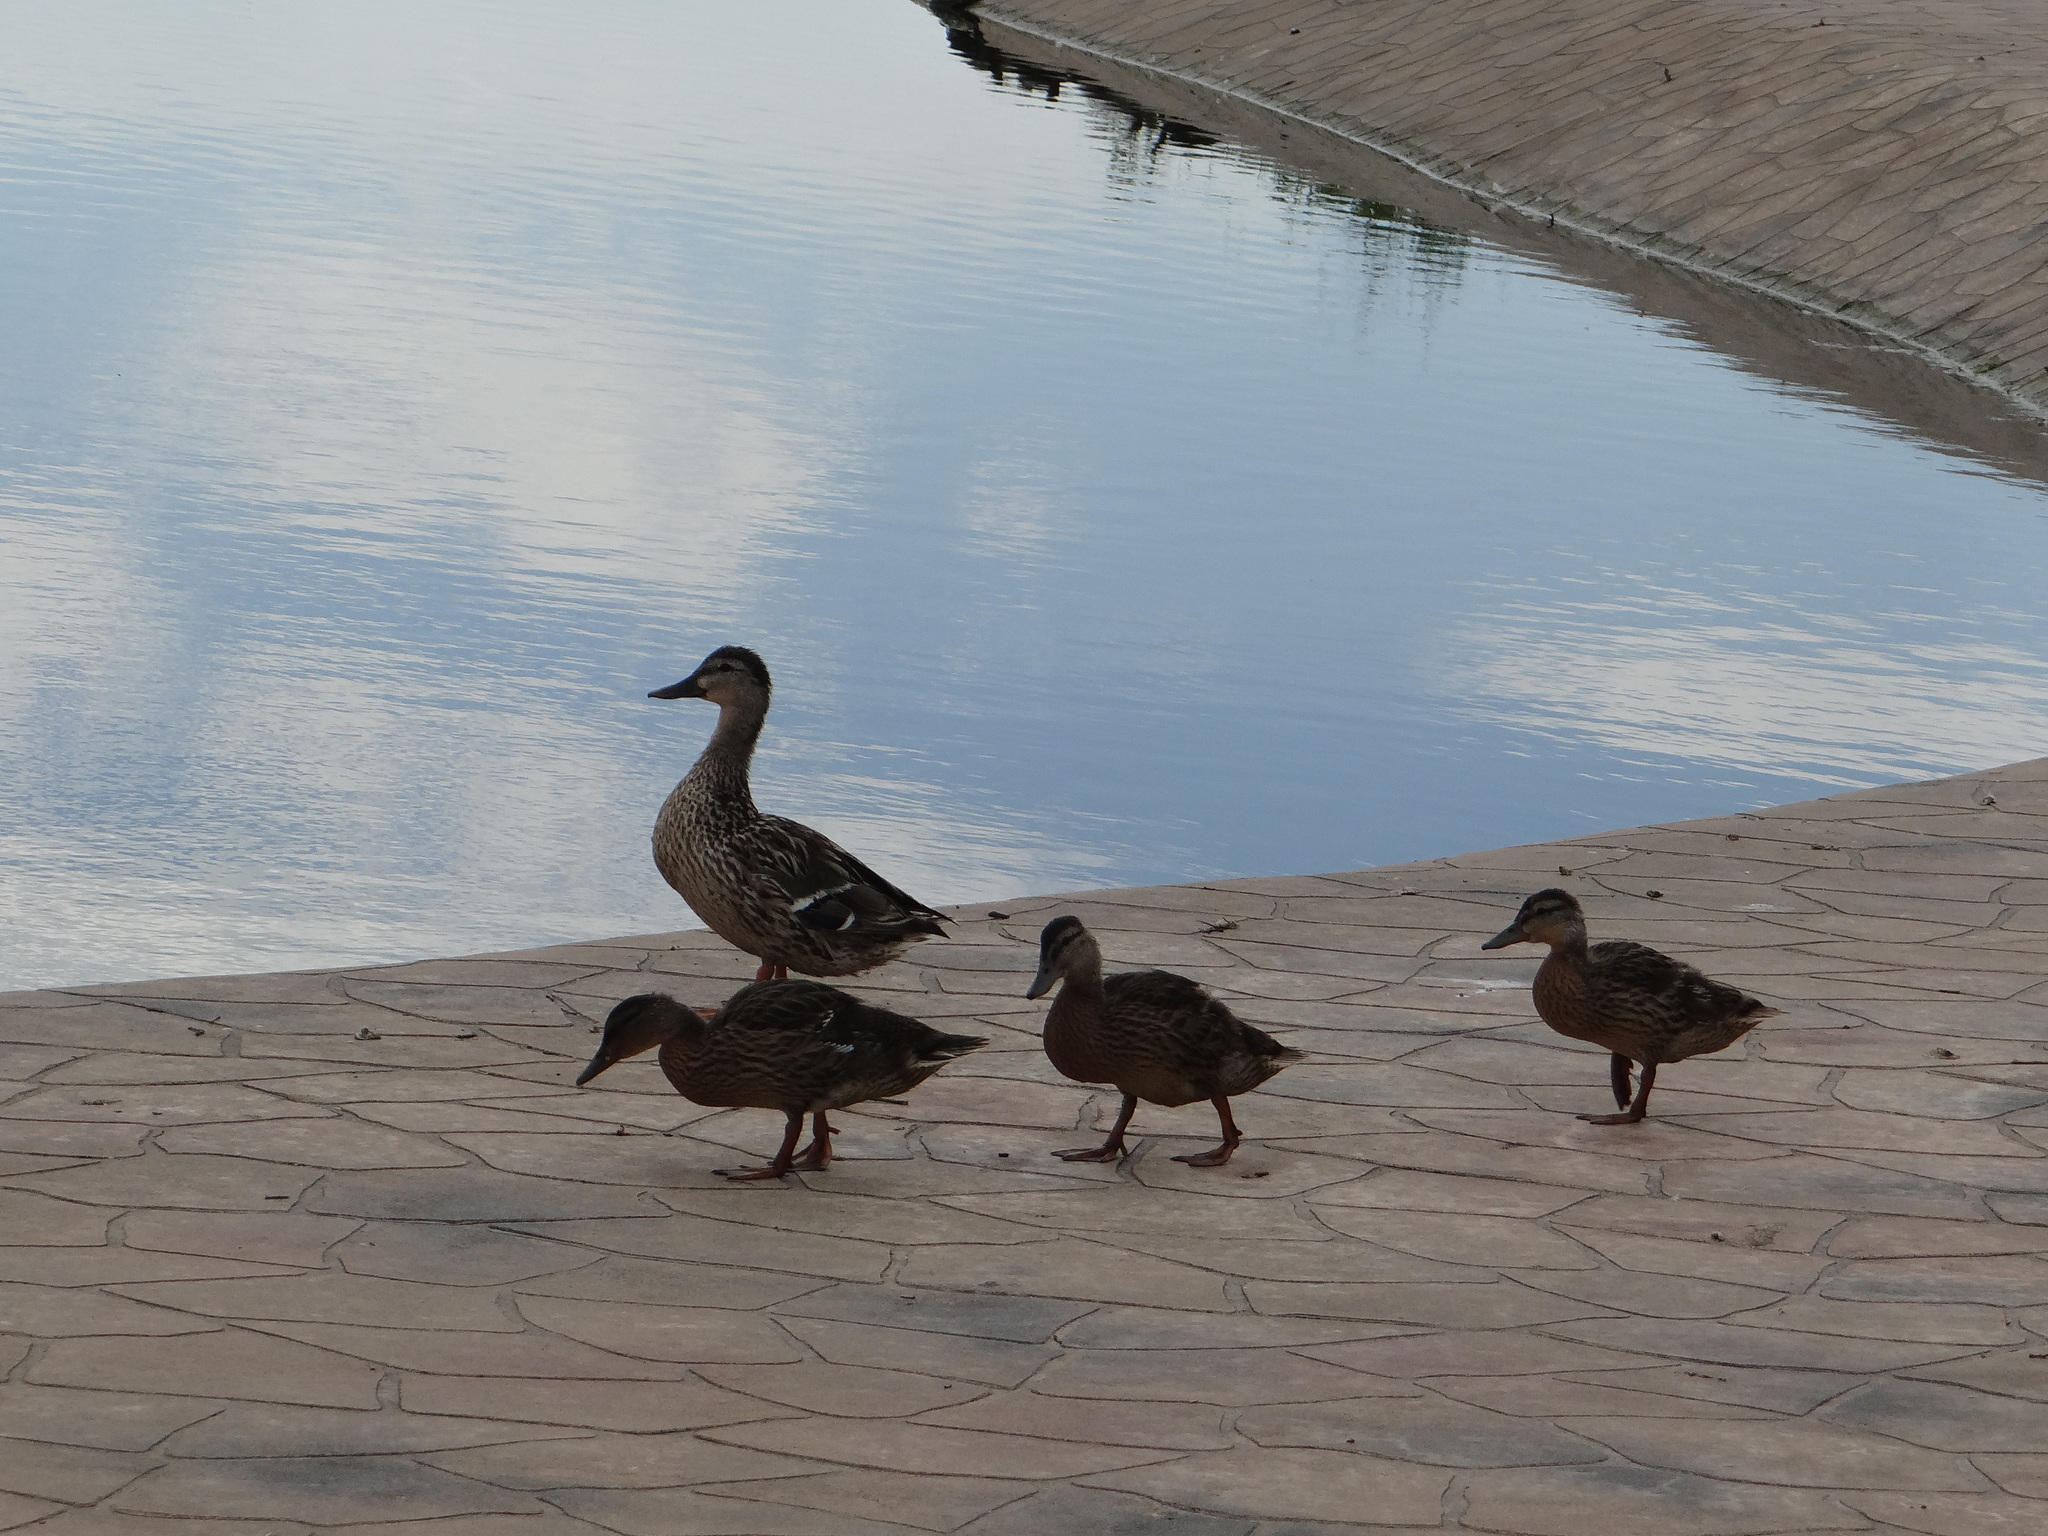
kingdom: Animalia
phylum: Chordata
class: Aves
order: Anseriformes
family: Anatidae
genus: Anas
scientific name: Anas platyrhynchos
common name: Mallard
